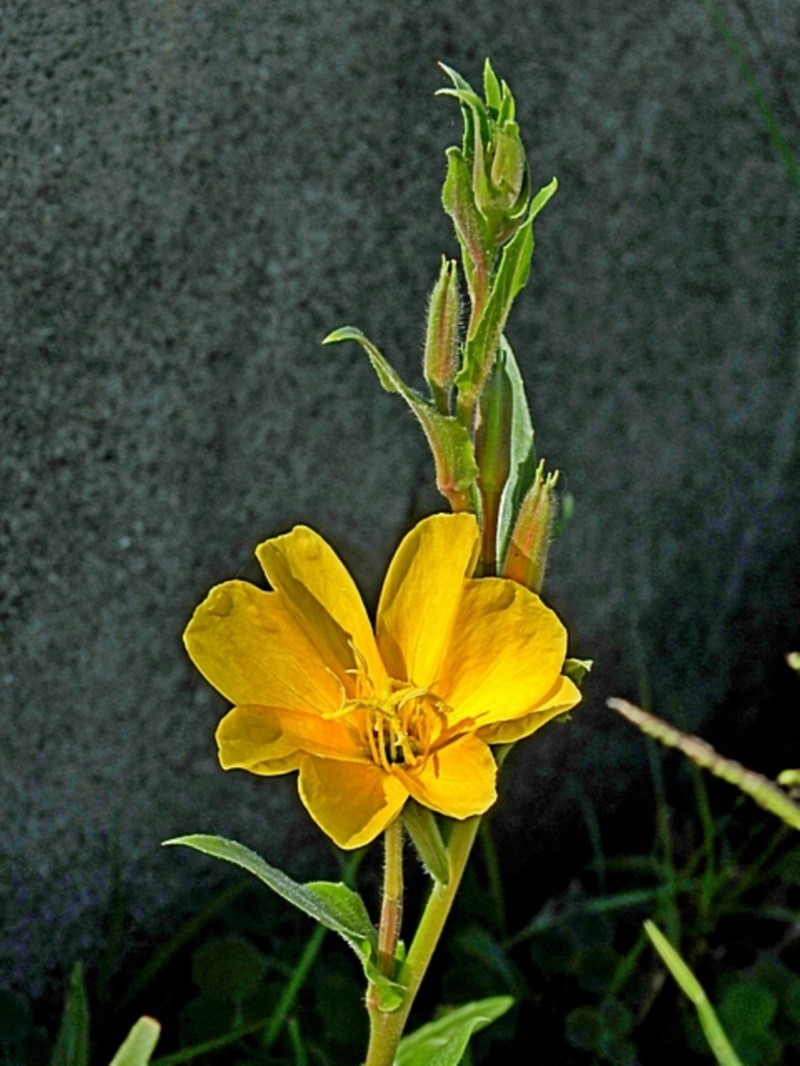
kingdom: Plantae
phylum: Tracheophyta
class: Magnoliopsida
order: Myrtales
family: Onagraceae
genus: Oenothera
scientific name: Oenothera stricta
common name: Fragrant evening-primrose
